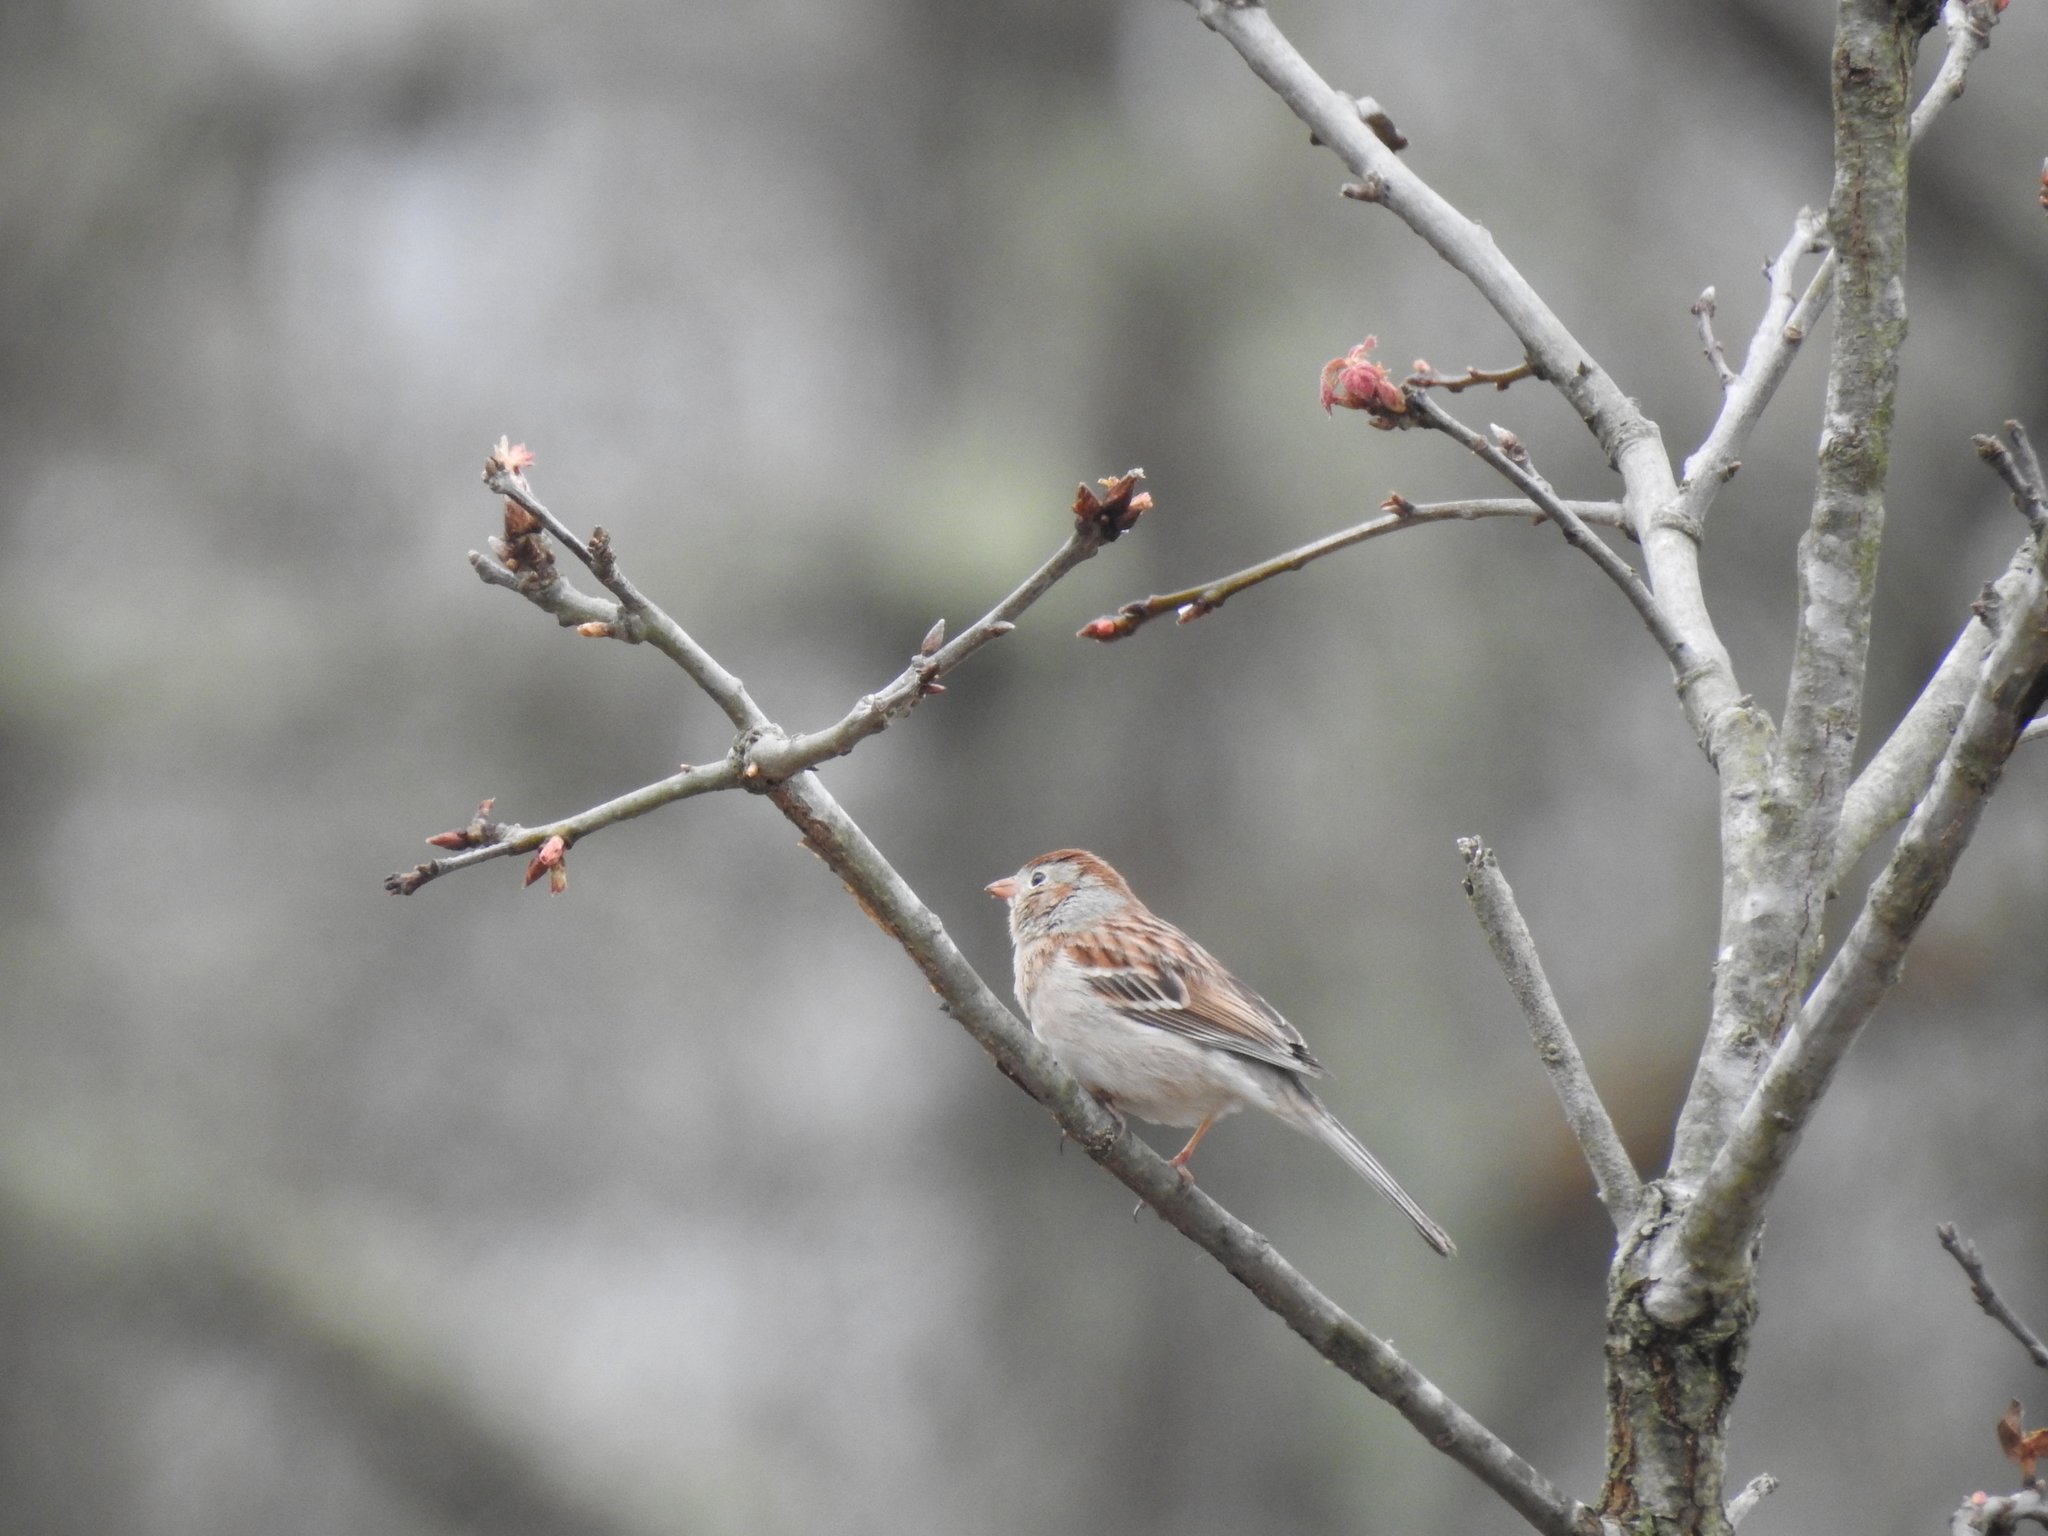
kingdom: Animalia
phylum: Chordata
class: Aves
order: Passeriformes
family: Passerellidae
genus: Spizella
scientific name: Spizella pusilla
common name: Field sparrow
